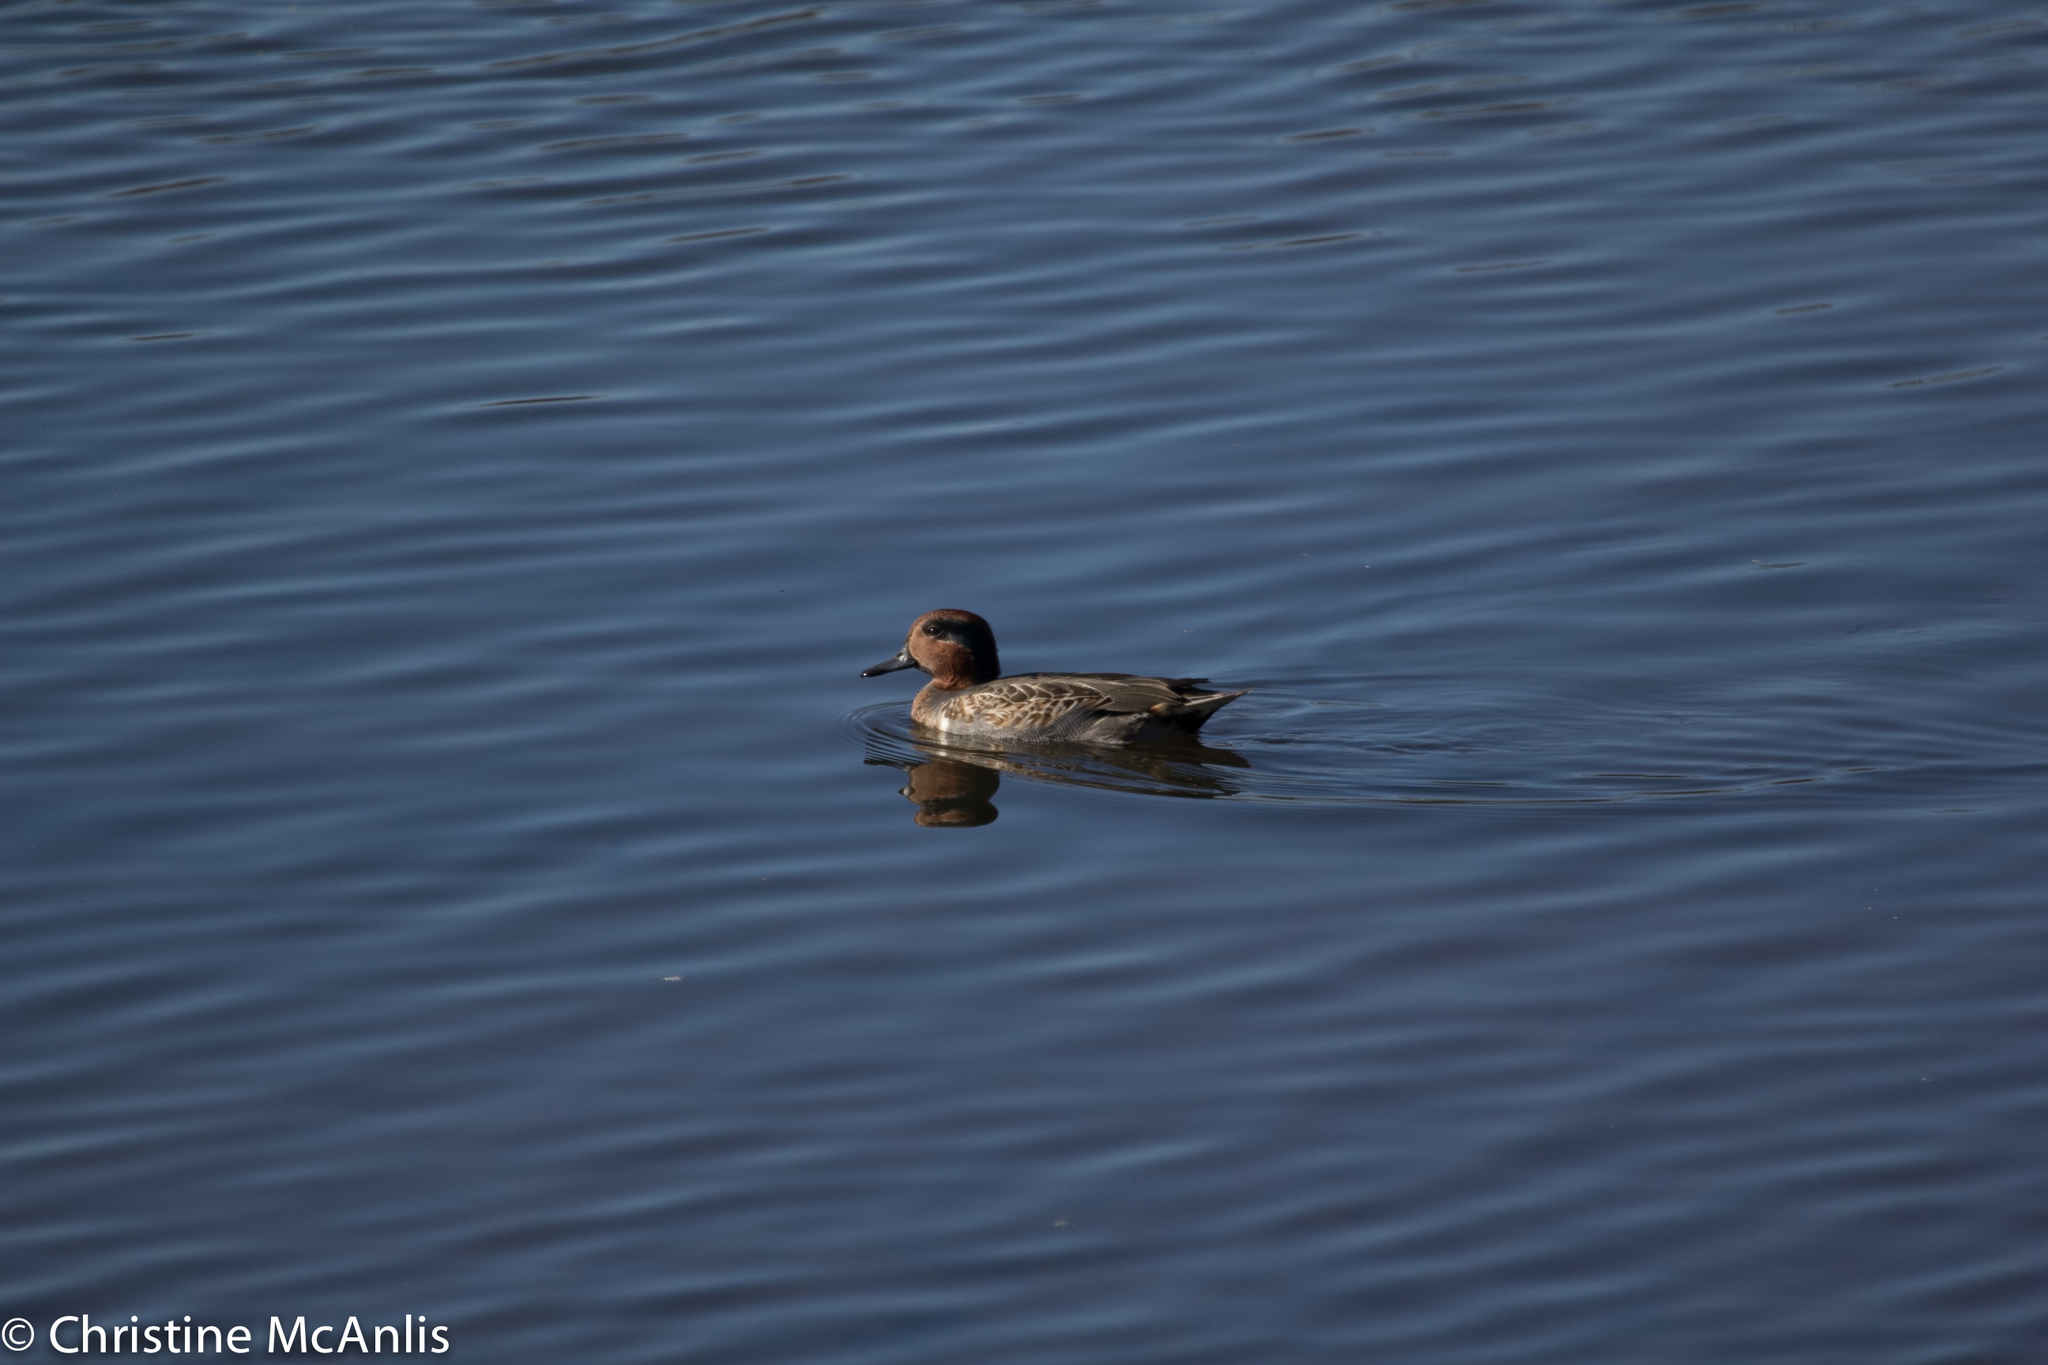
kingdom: Animalia
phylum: Chordata
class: Aves
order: Anseriformes
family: Anatidae
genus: Anas
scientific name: Anas crecca
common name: Eurasian teal
